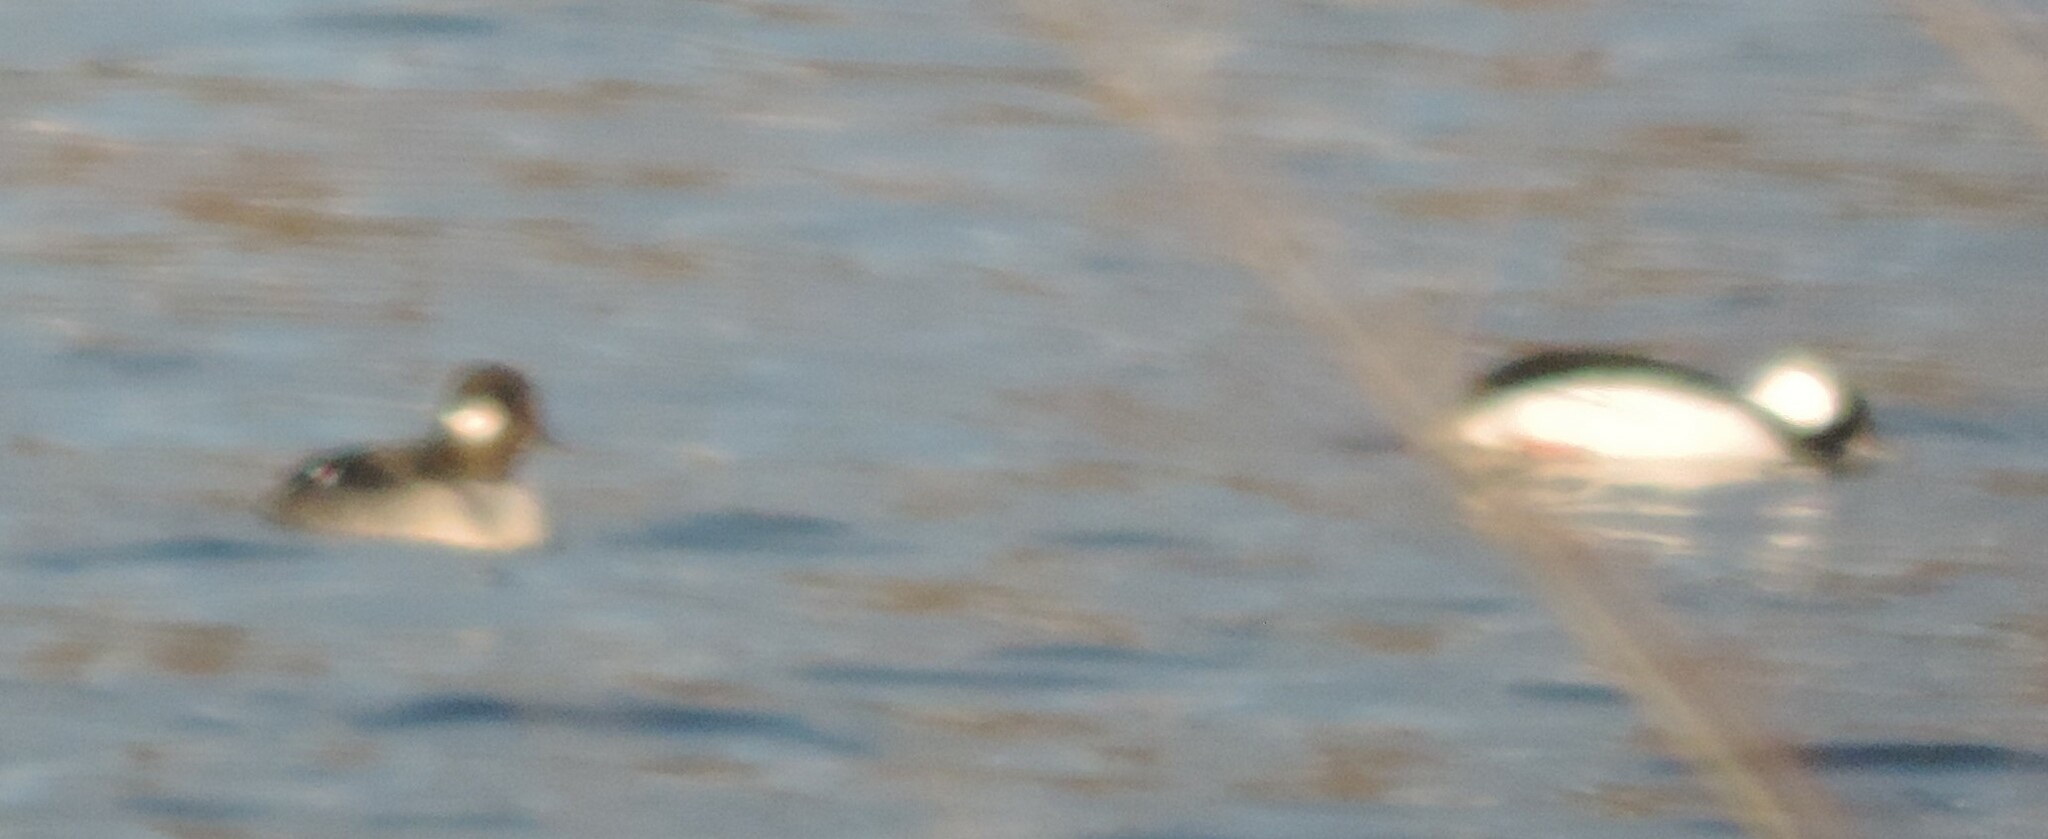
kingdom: Animalia
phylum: Chordata
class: Aves
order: Anseriformes
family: Anatidae
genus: Bucephala
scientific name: Bucephala albeola
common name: Bufflehead
